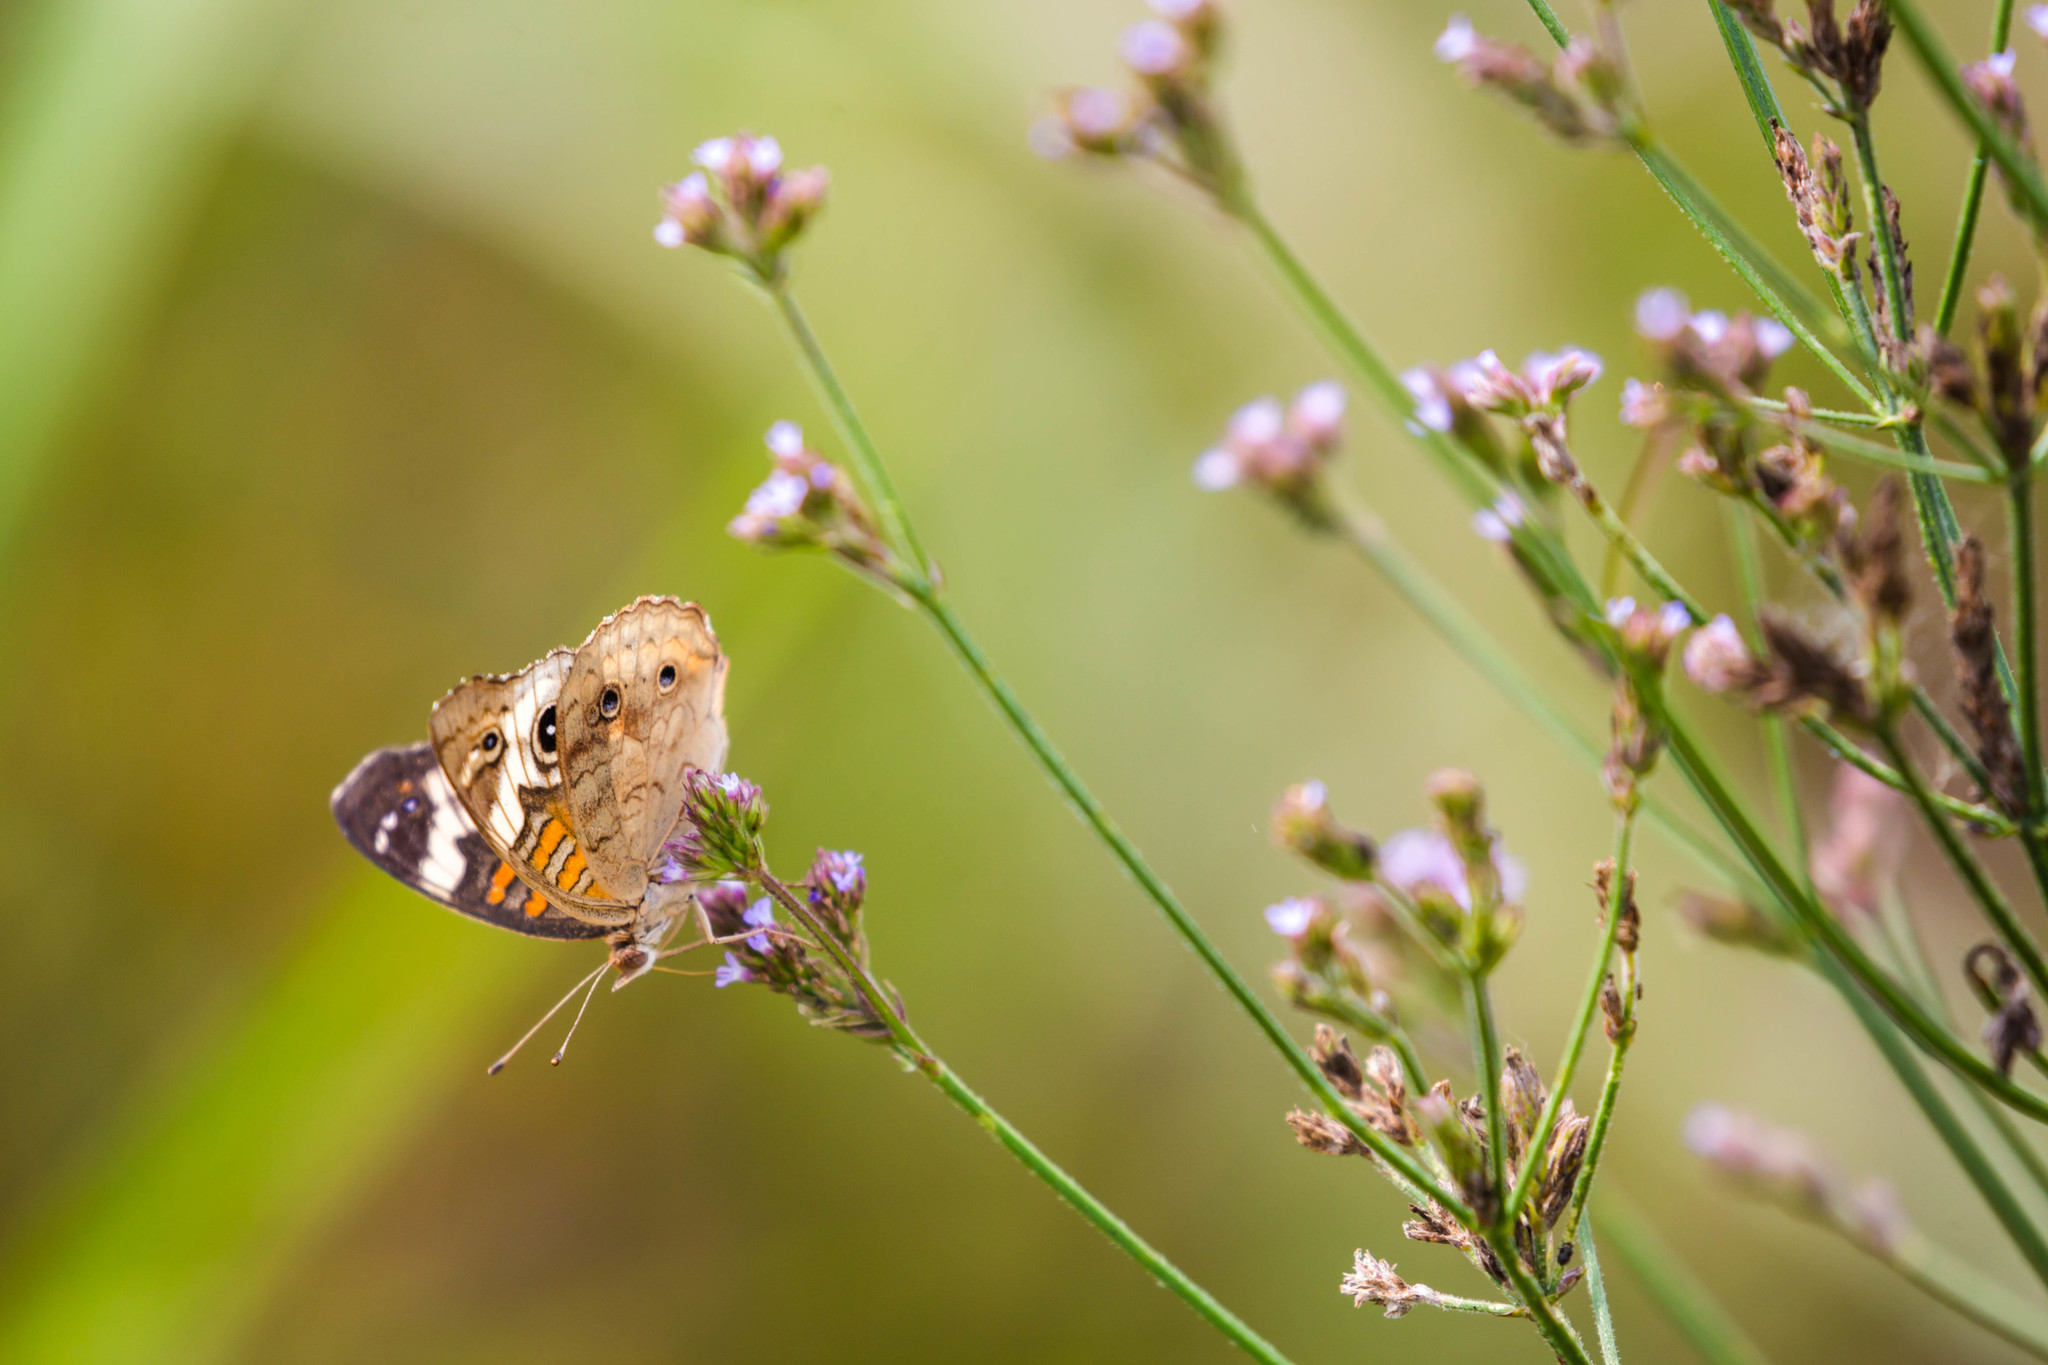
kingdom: Animalia
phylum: Arthropoda
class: Insecta
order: Lepidoptera
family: Nymphalidae
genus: Junonia
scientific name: Junonia coenia
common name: Common buckeye
